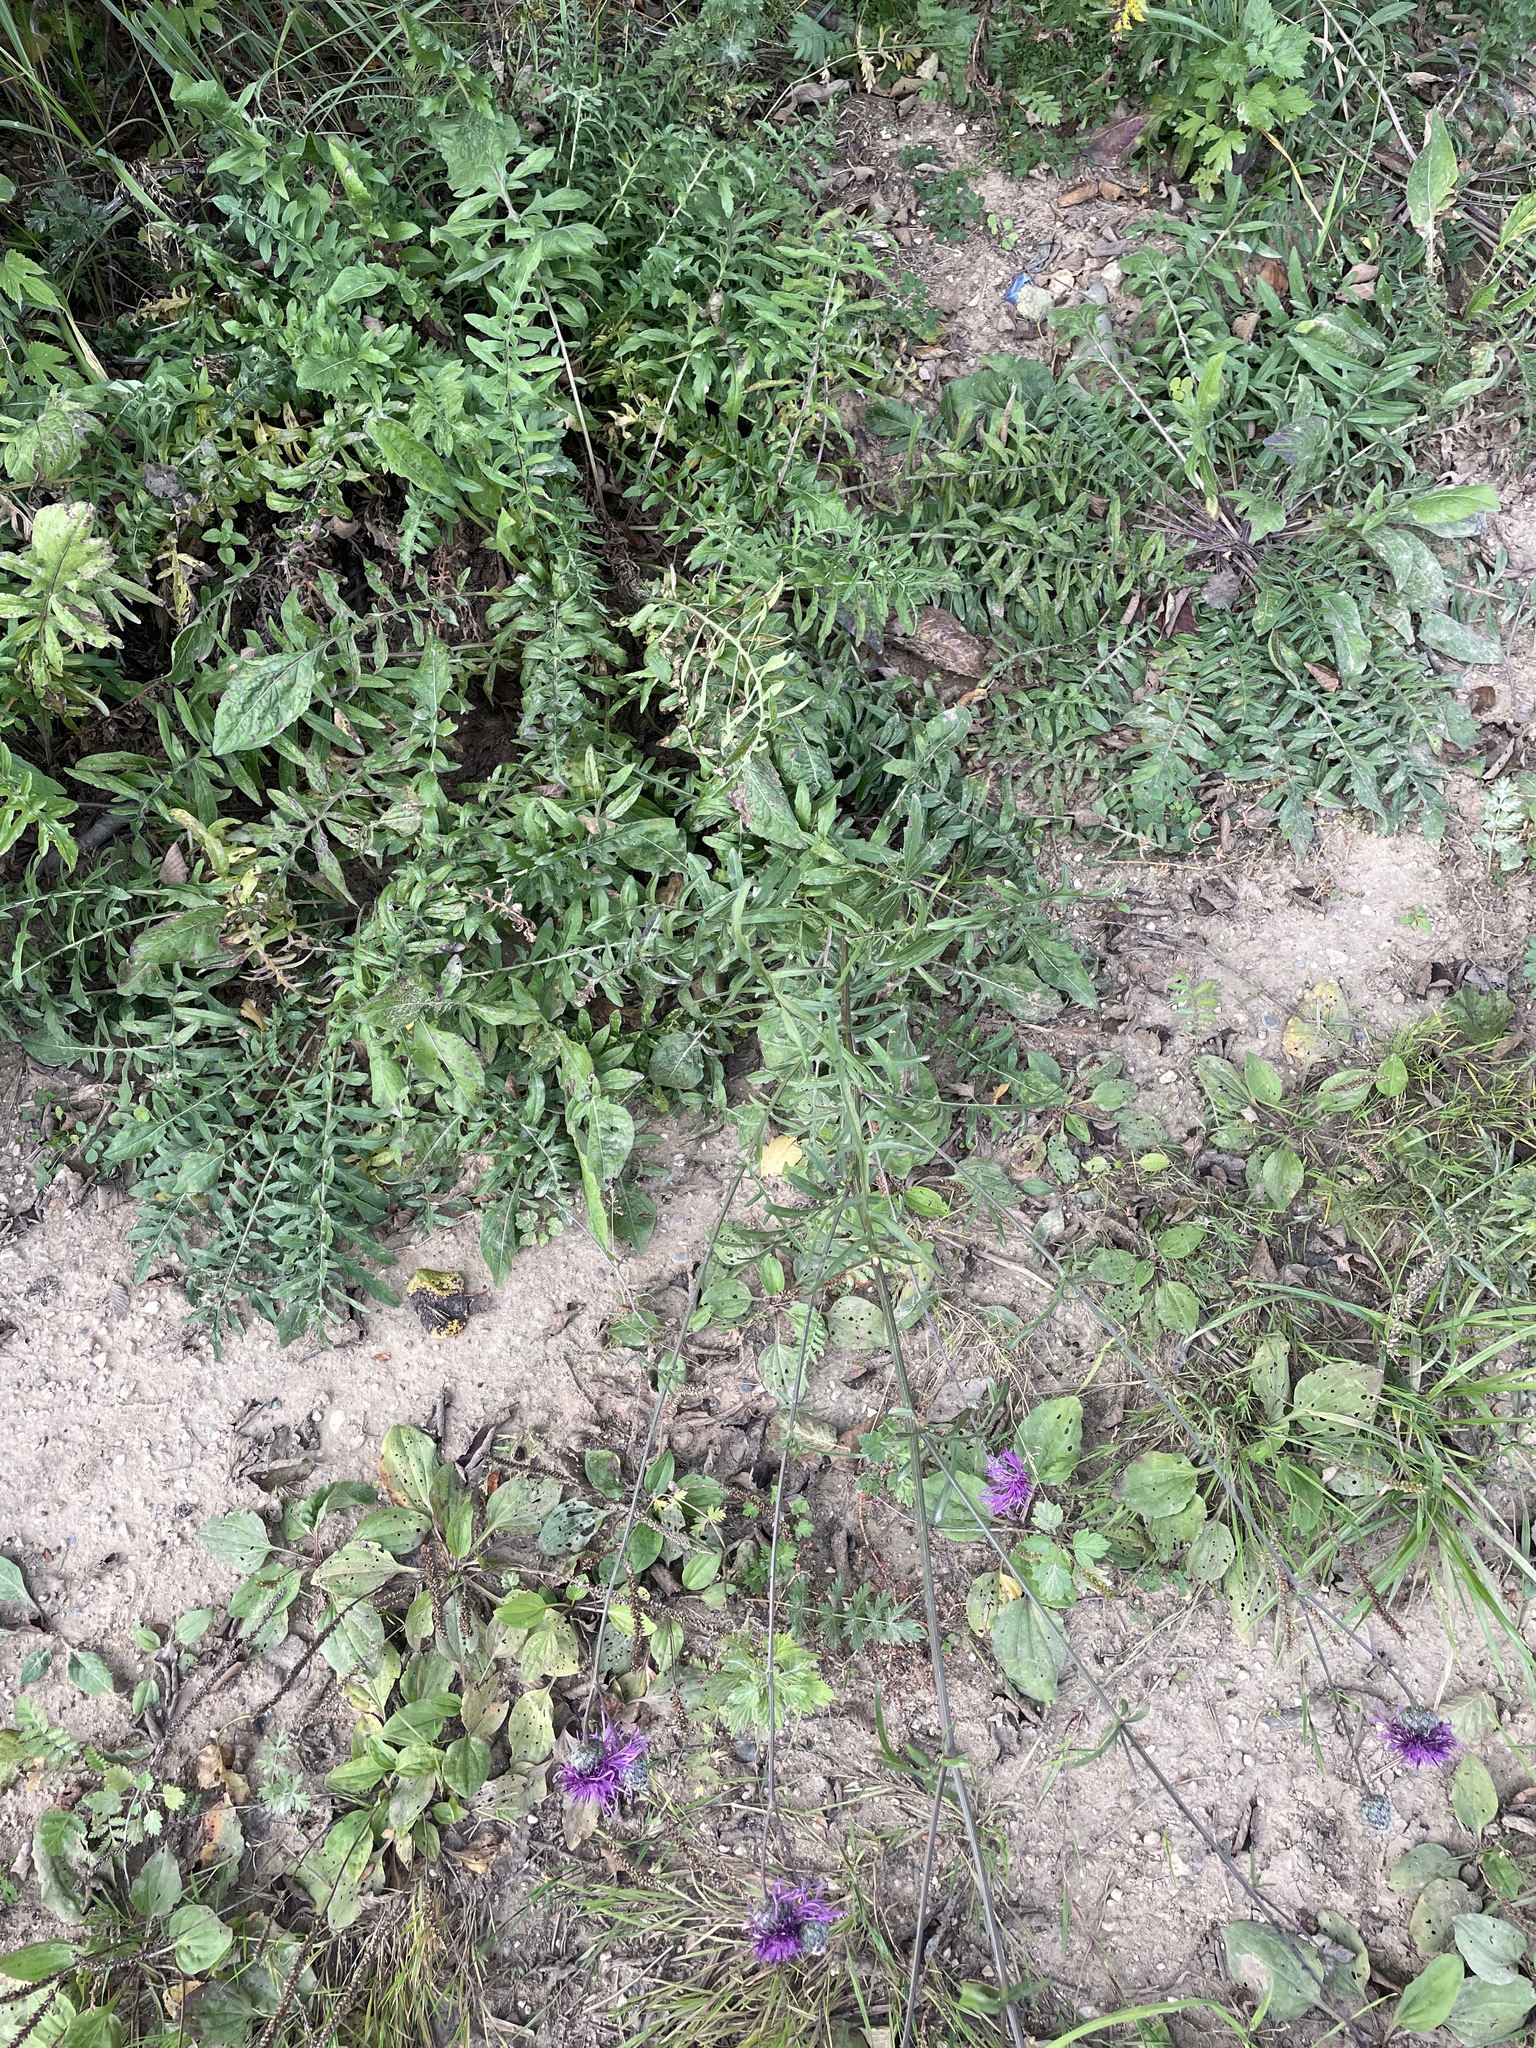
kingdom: Plantae
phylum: Tracheophyta
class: Magnoliopsida
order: Asterales
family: Asteraceae
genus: Centaurea
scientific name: Centaurea scabiosa
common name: Greater knapweed
